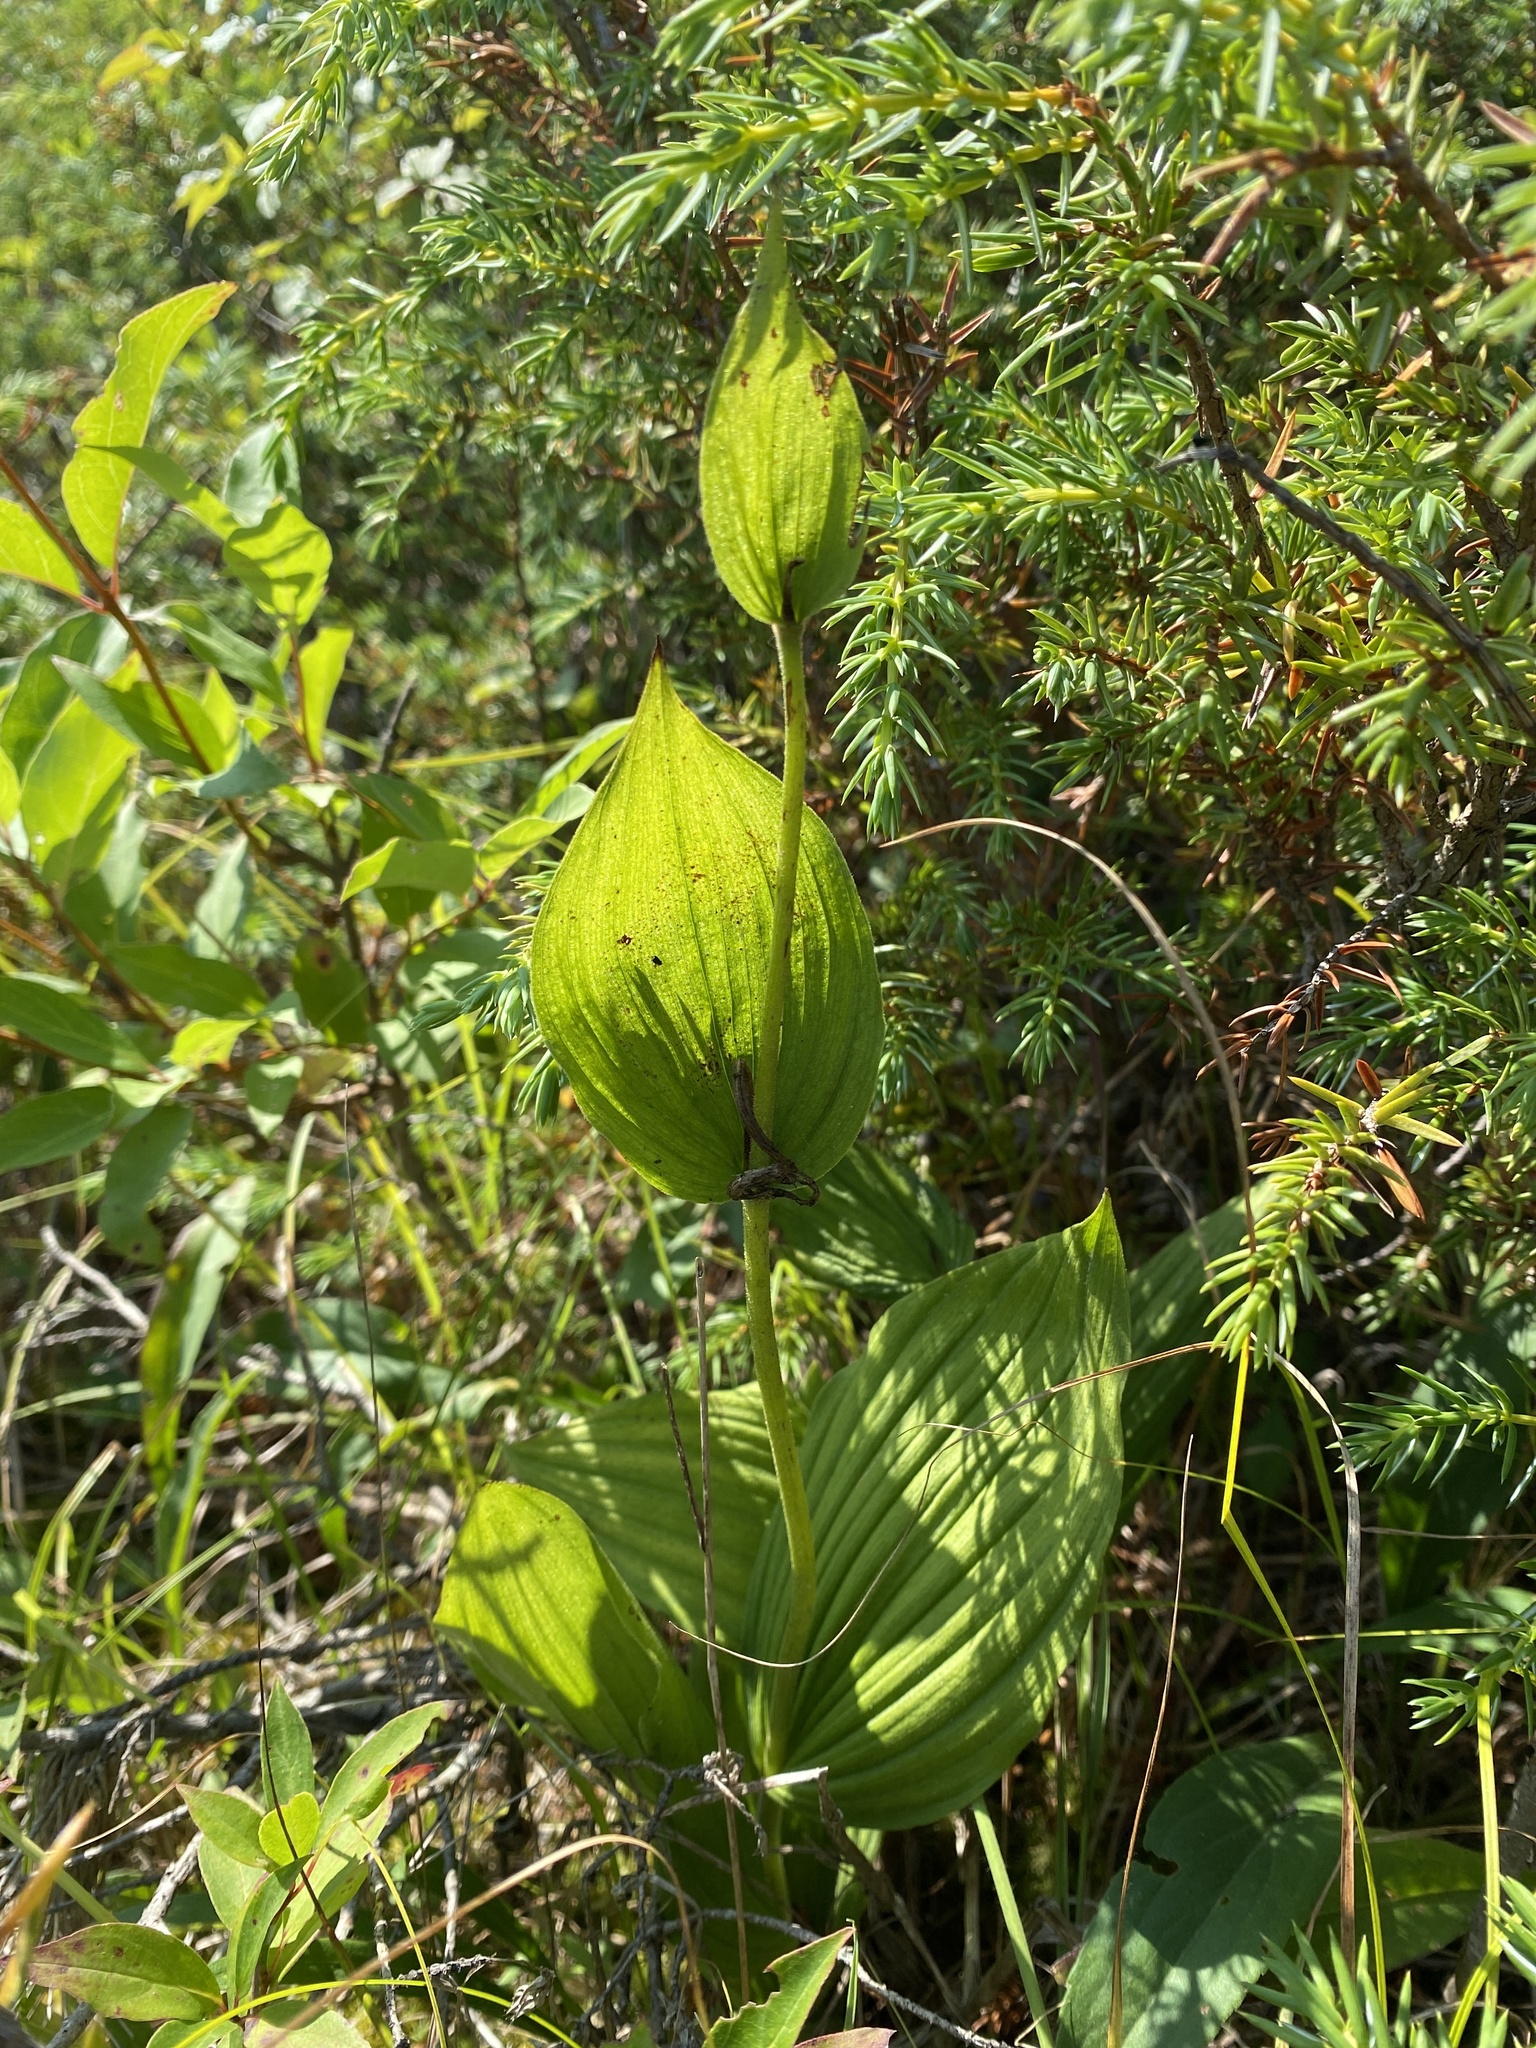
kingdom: Plantae
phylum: Tracheophyta
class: Liliopsida
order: Asparagales
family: Orchidaceae
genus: Cypripedium
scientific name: Cypripedium reginae
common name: Queen lady's-slipper
